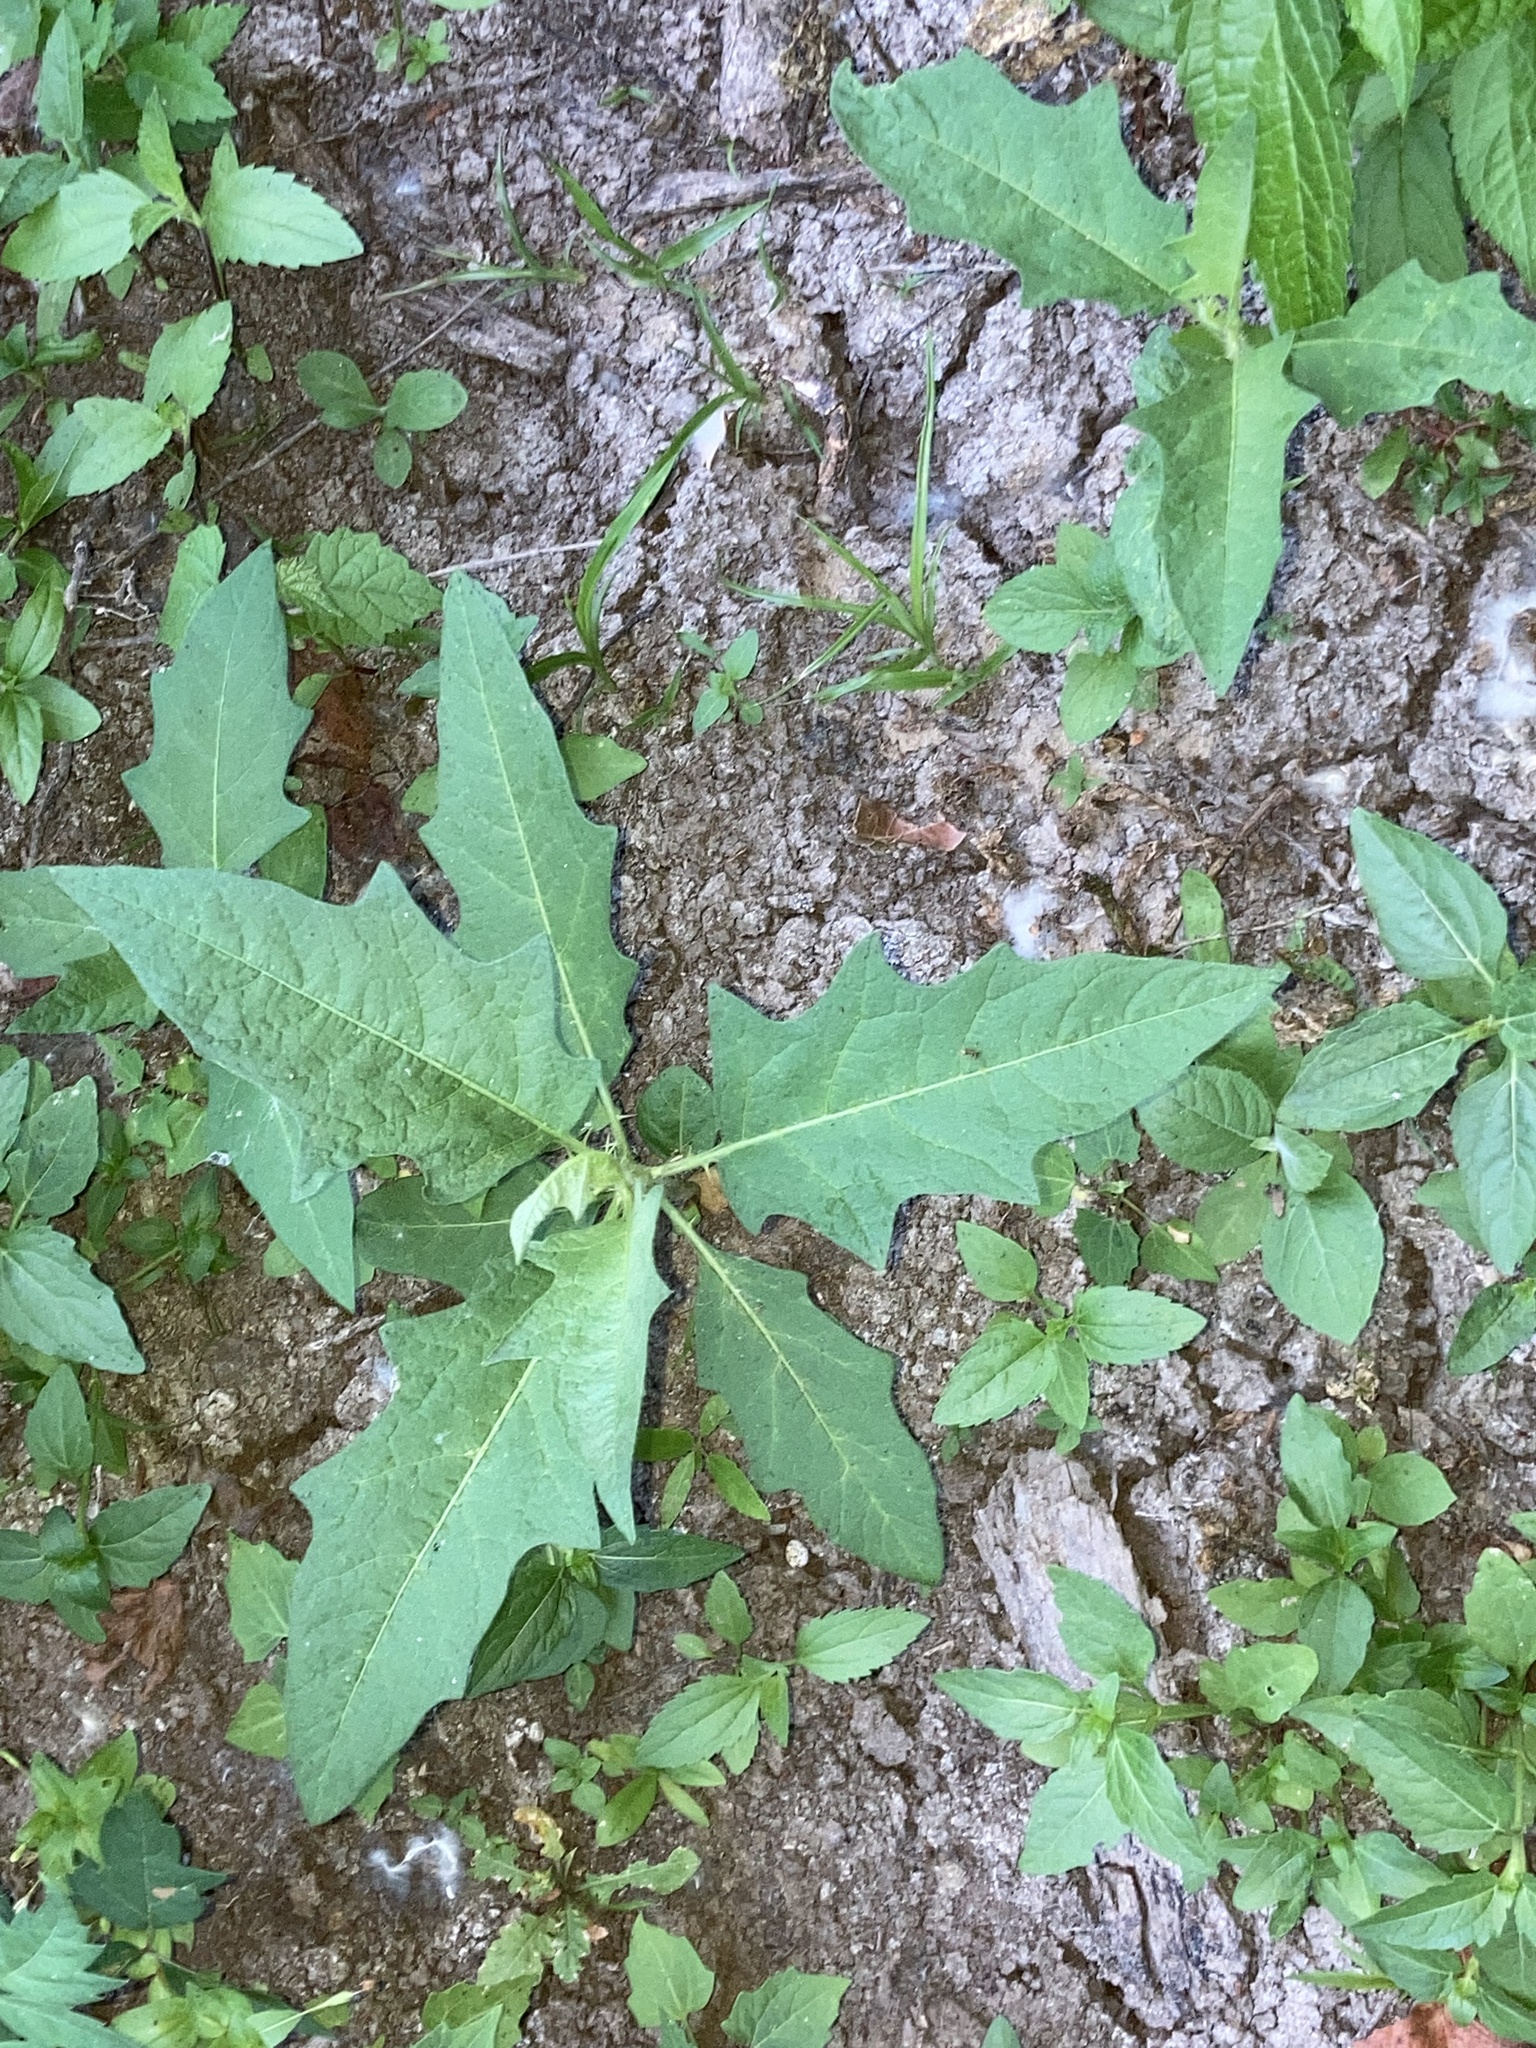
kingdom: Plantae
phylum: Tracheophyta
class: Magnoliopsida
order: Solanales
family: Solanaceae
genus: Solanum
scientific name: Solanum carolinense
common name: Horse-nettle
